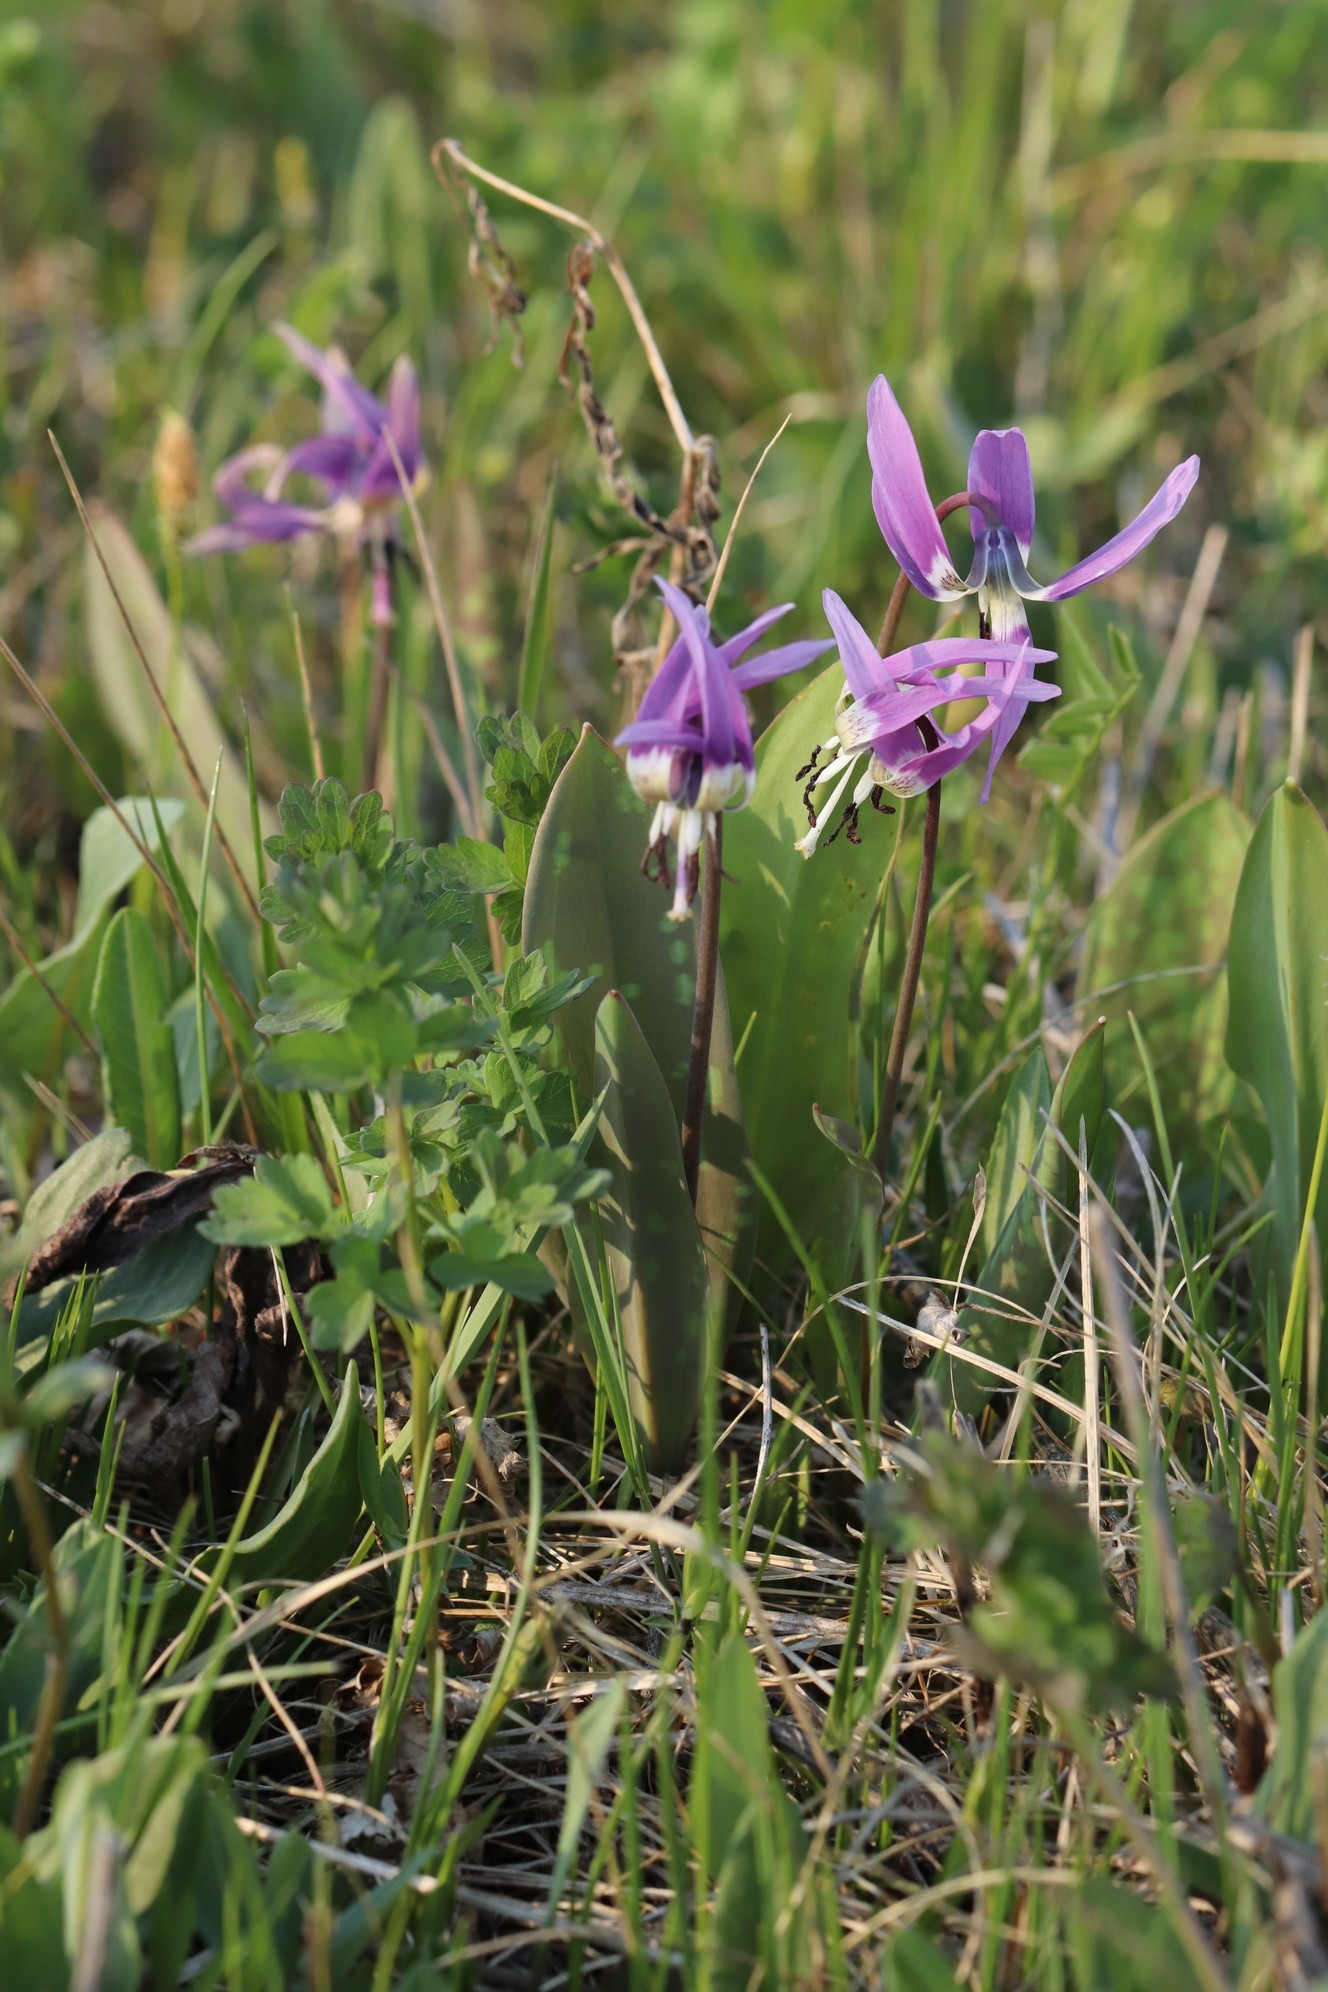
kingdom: Plantae
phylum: Tracheophyta
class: Liliopsida
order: Liliales
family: Liliaceae
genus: Erythronium
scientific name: Erythronium sulevii
